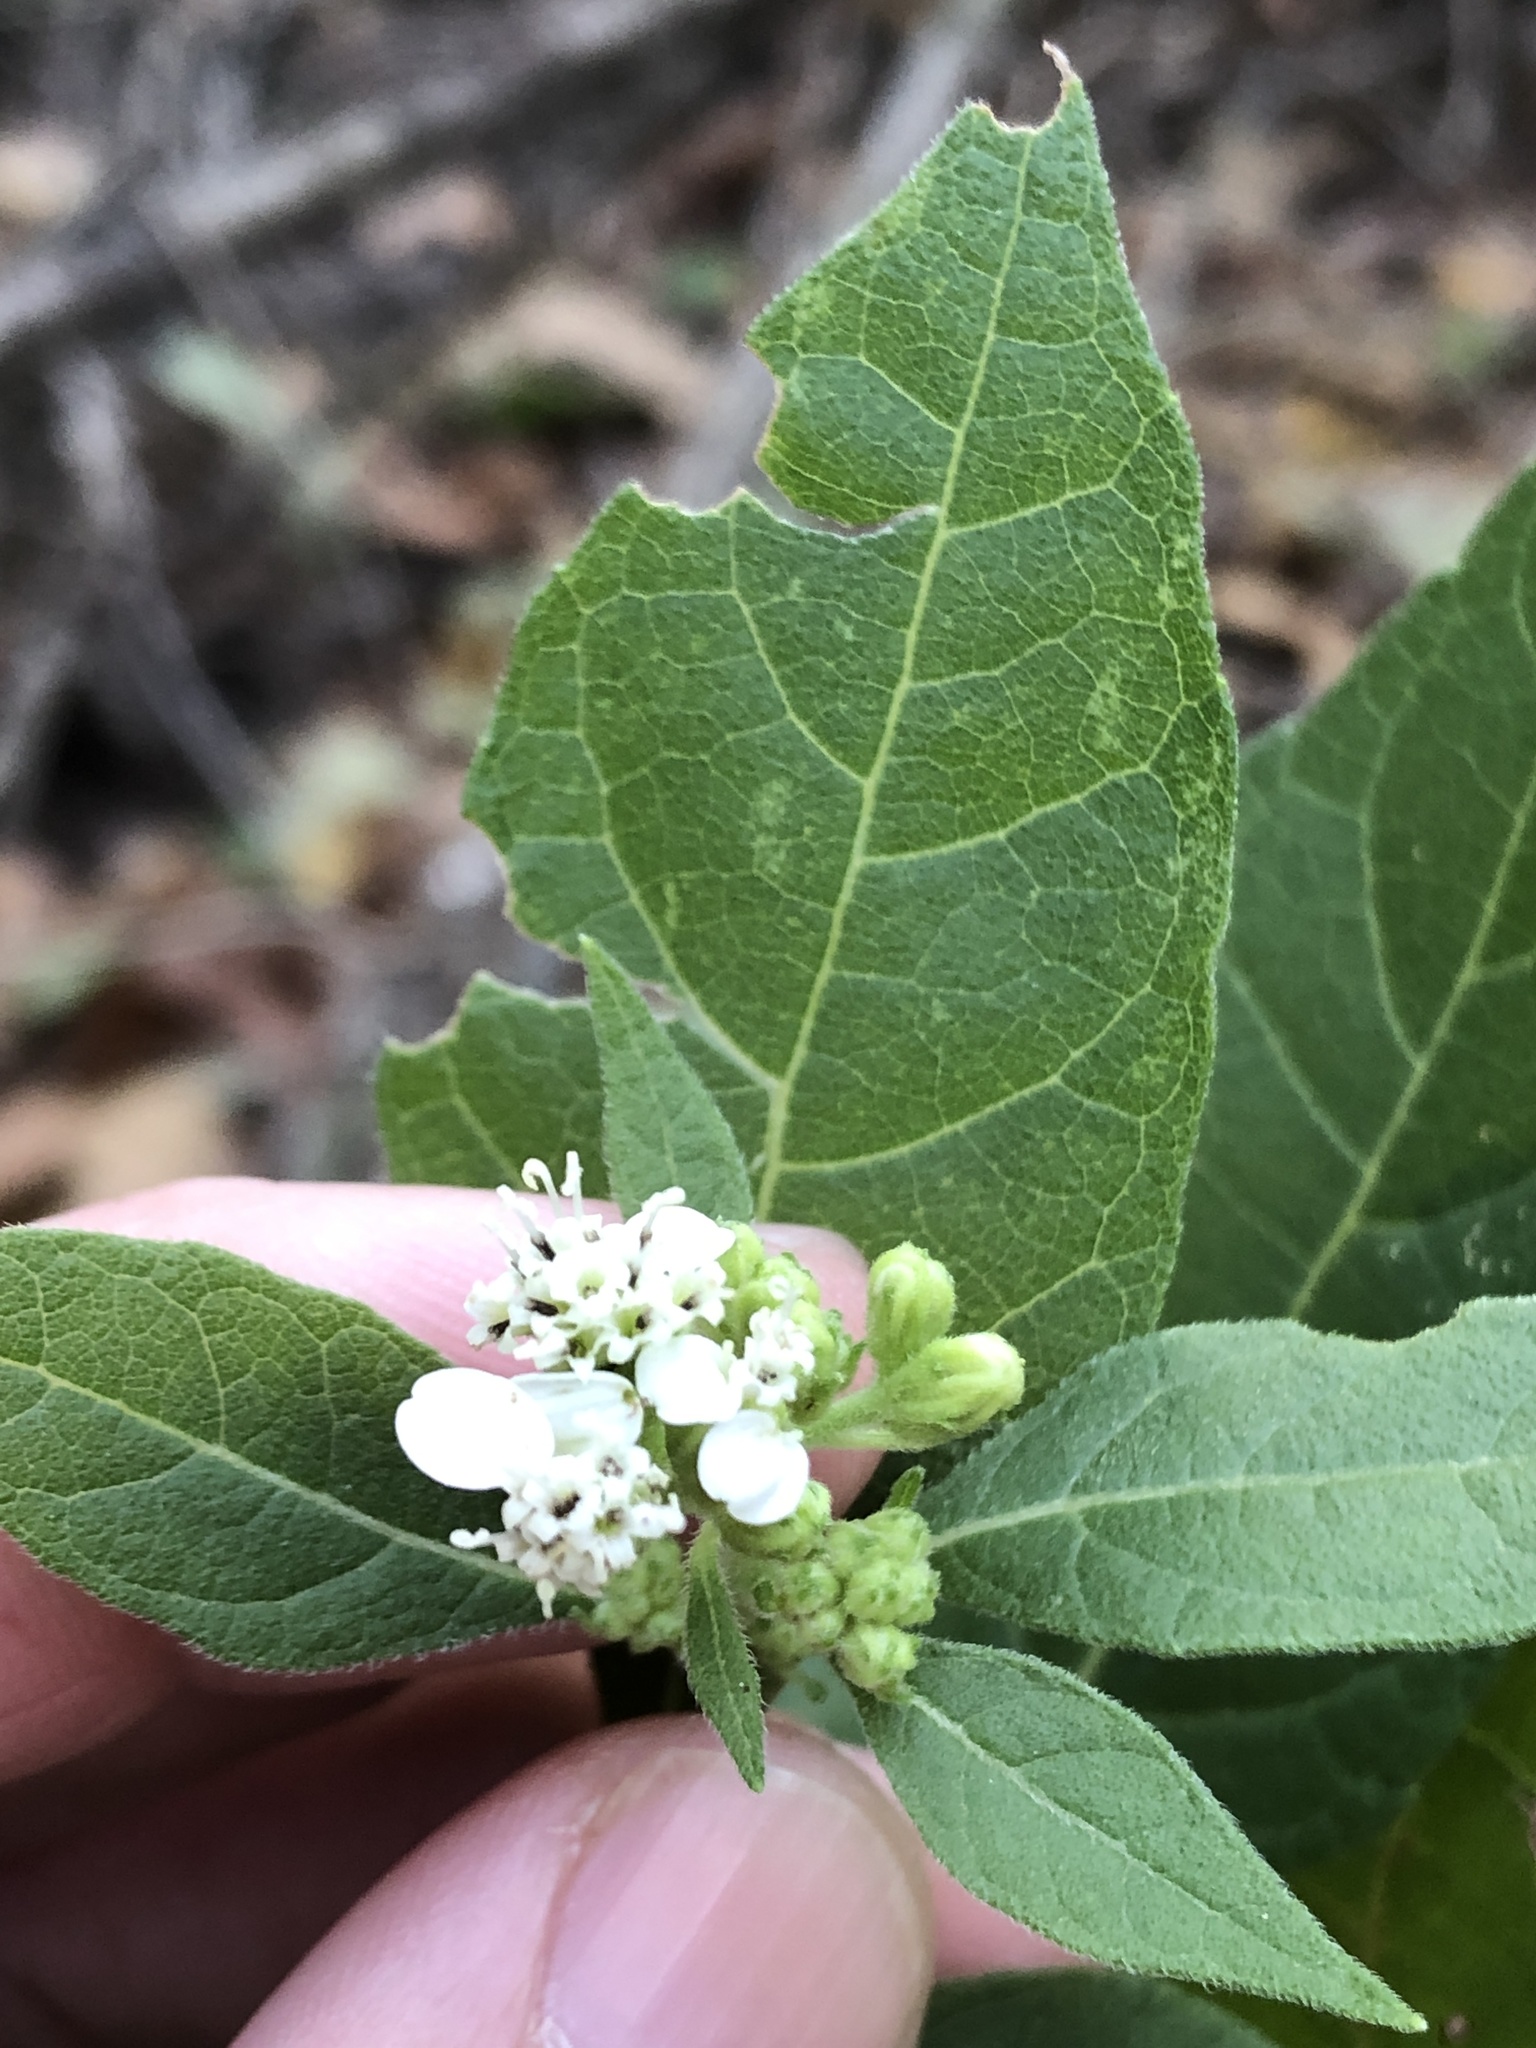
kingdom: Plantae
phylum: Tracheophyta
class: Magnoliopsida
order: Asterales
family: Asteraceae
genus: Verbesina
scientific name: Verbesina virginica
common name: Frostweed
